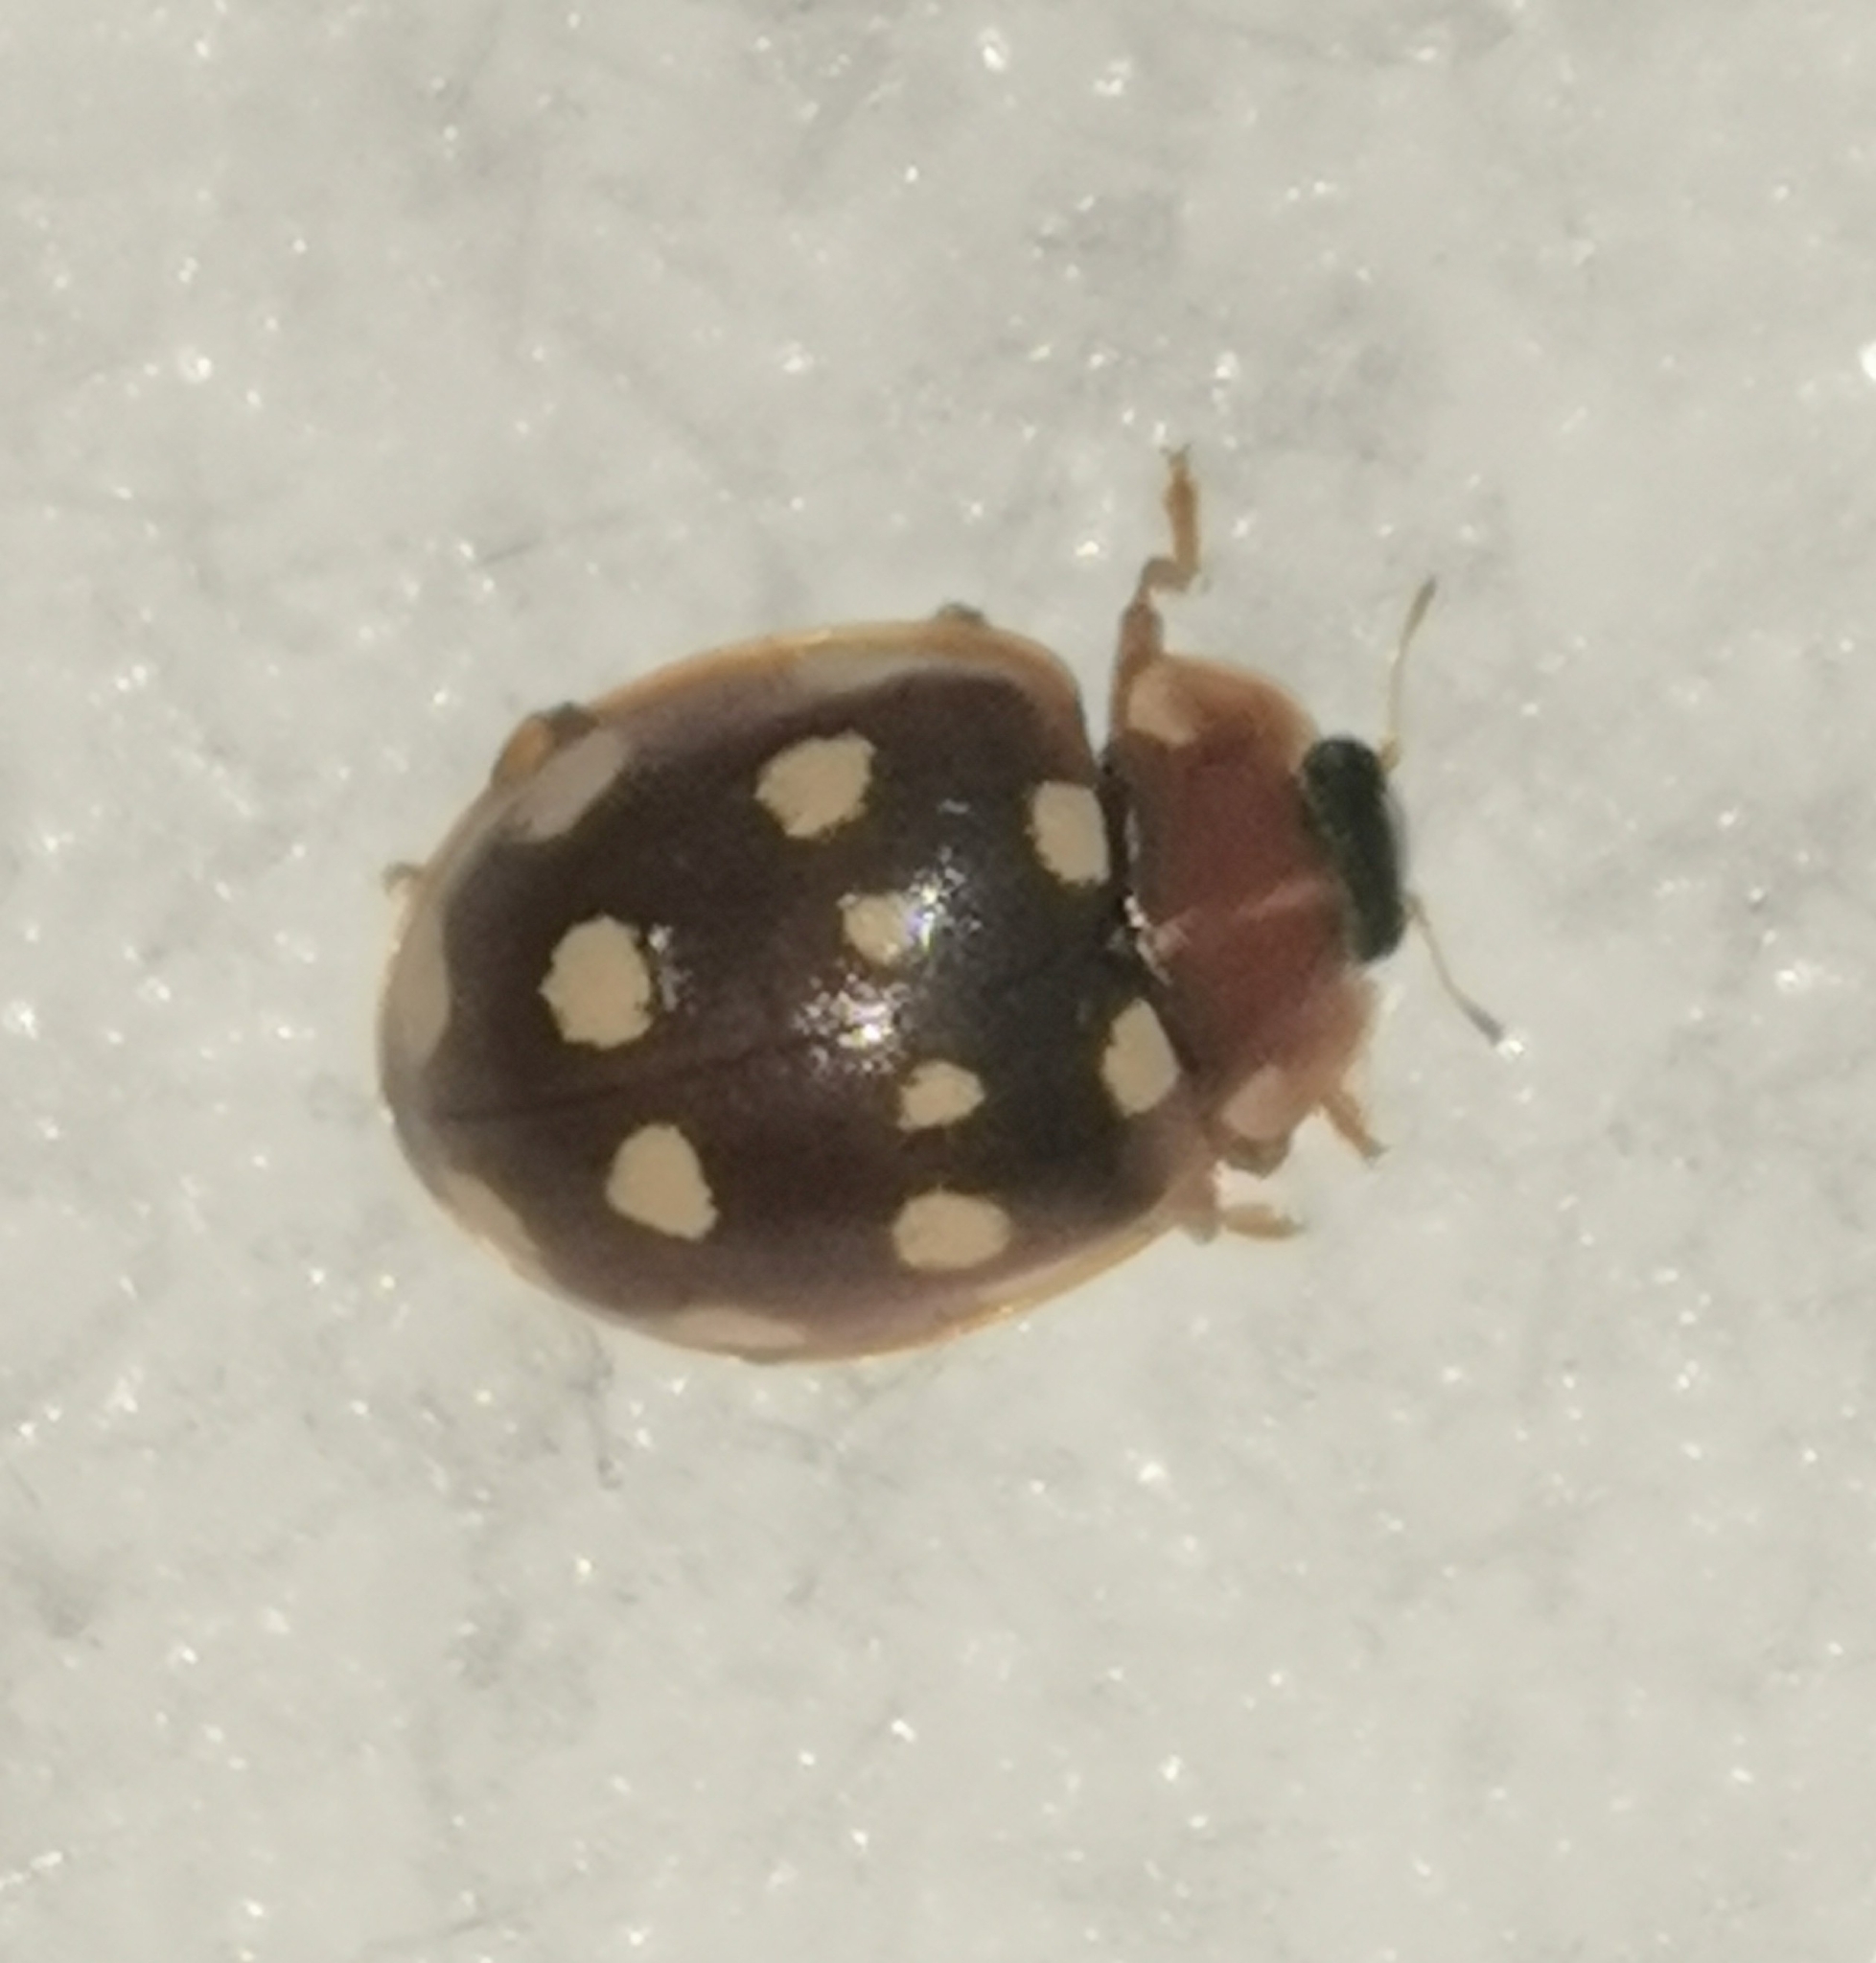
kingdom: Animalia
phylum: Arthropoda
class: Insecta
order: Coleoptera
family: Coccinellidae
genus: Calvia
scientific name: Calvia quatuordecimguttata
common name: Cream-spot ladybird
